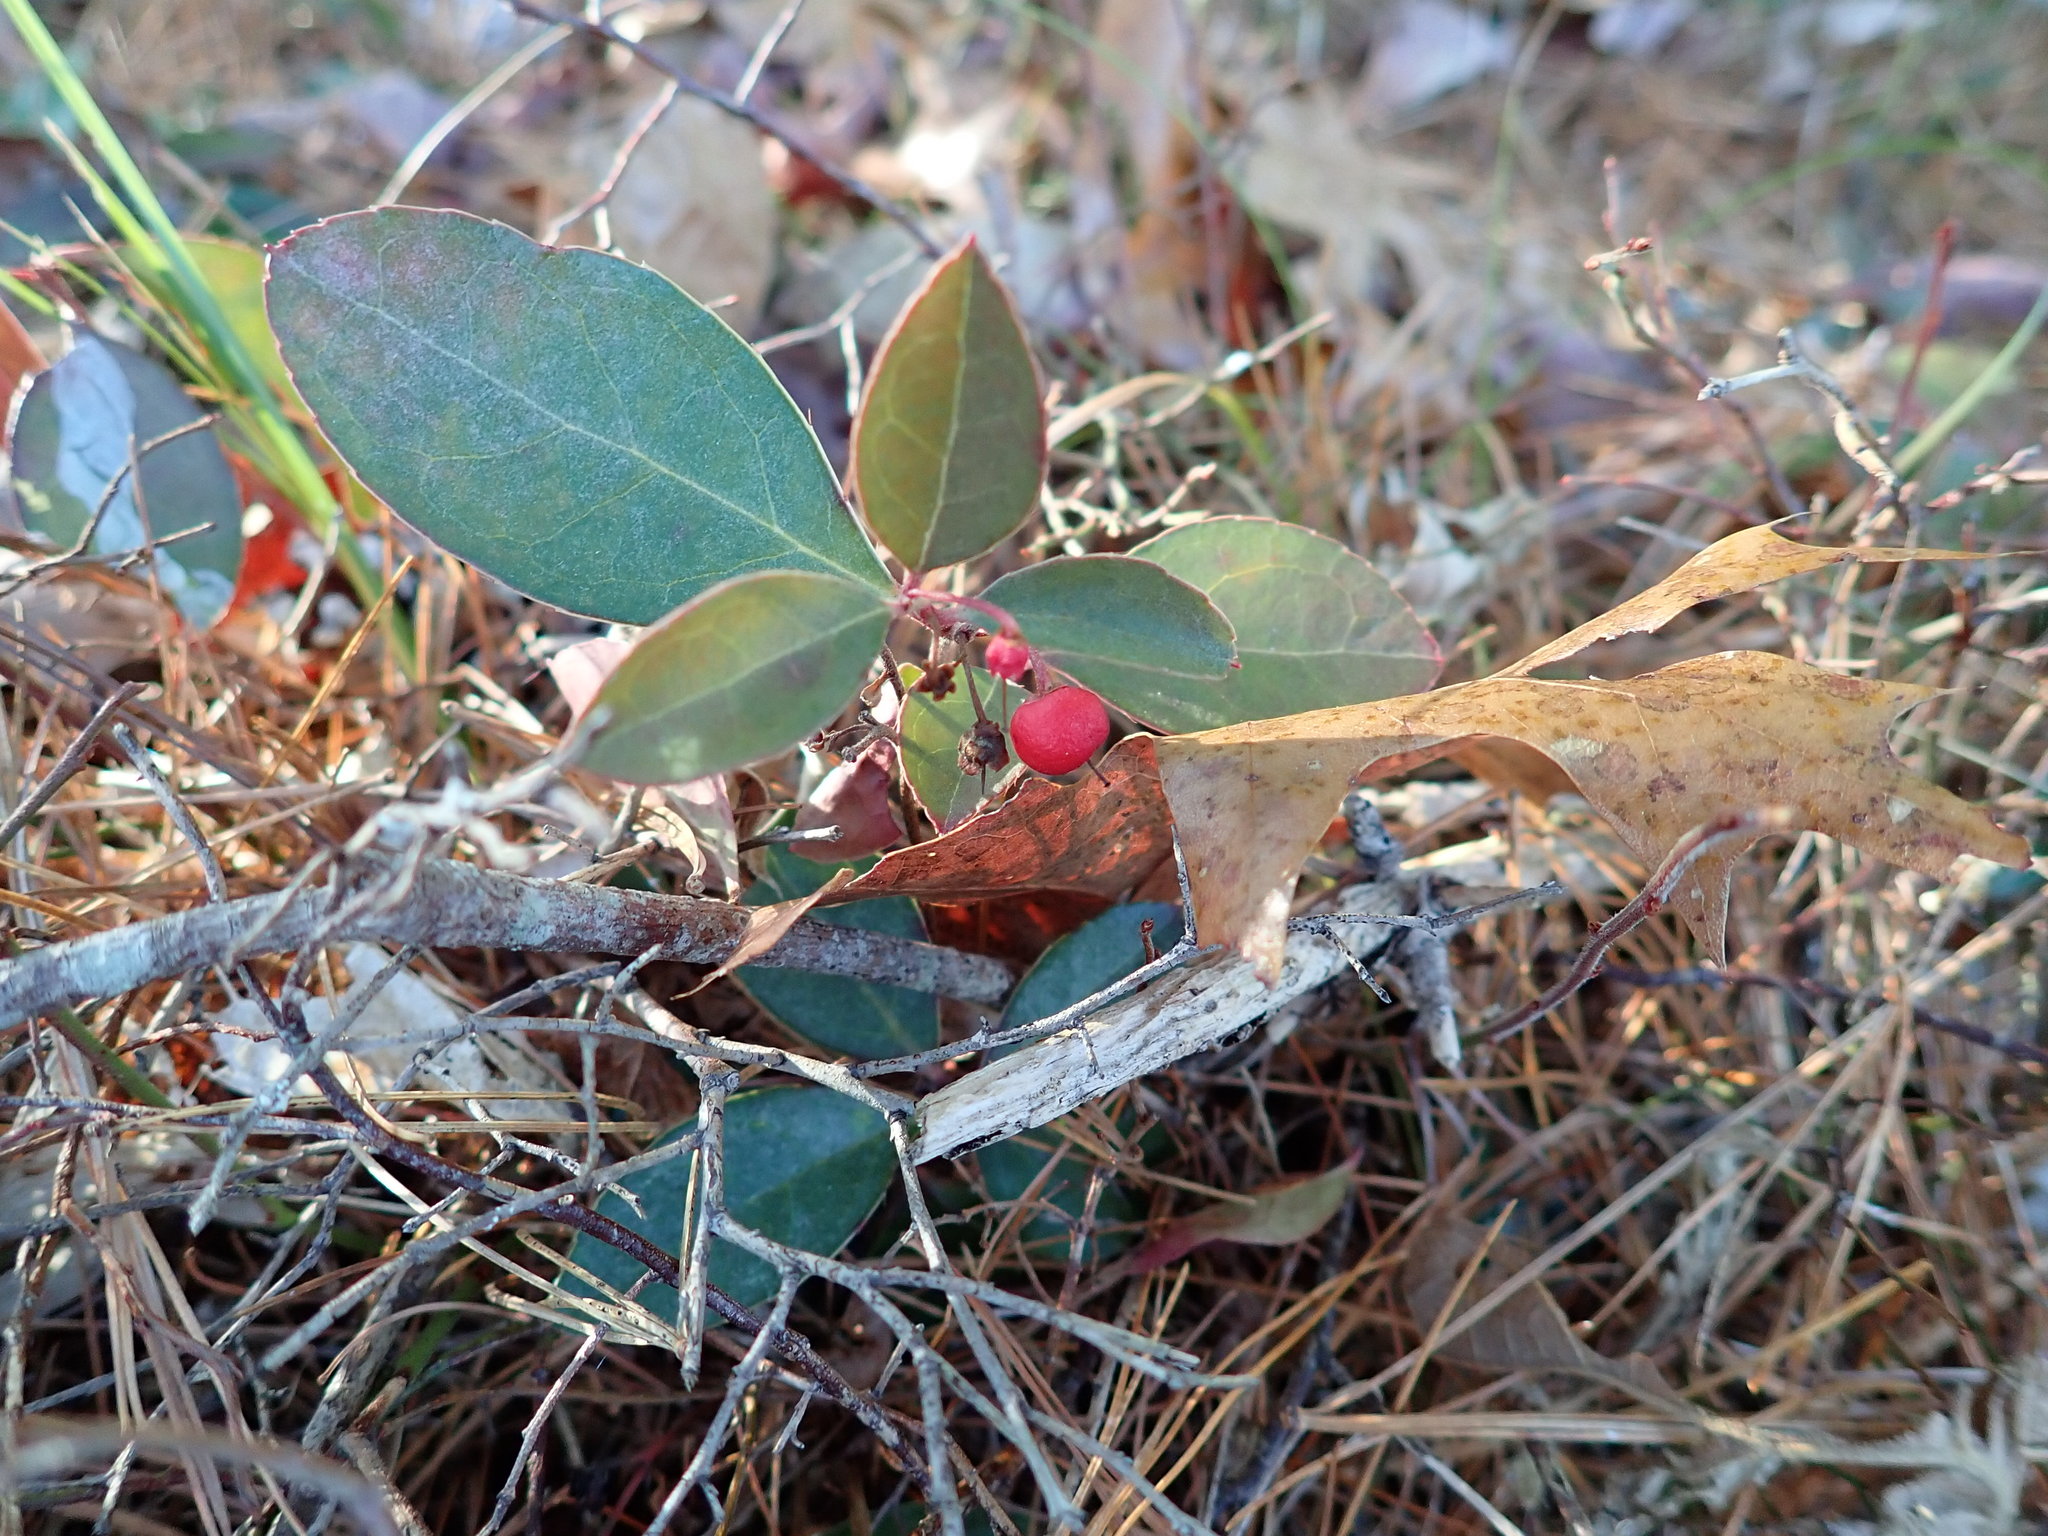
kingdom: Plantae
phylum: Tracheophyta
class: Magnoliopsida
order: Ericales
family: Ericaceae
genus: Gaultheria
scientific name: Gaultheria procumbens
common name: Checkerberry
